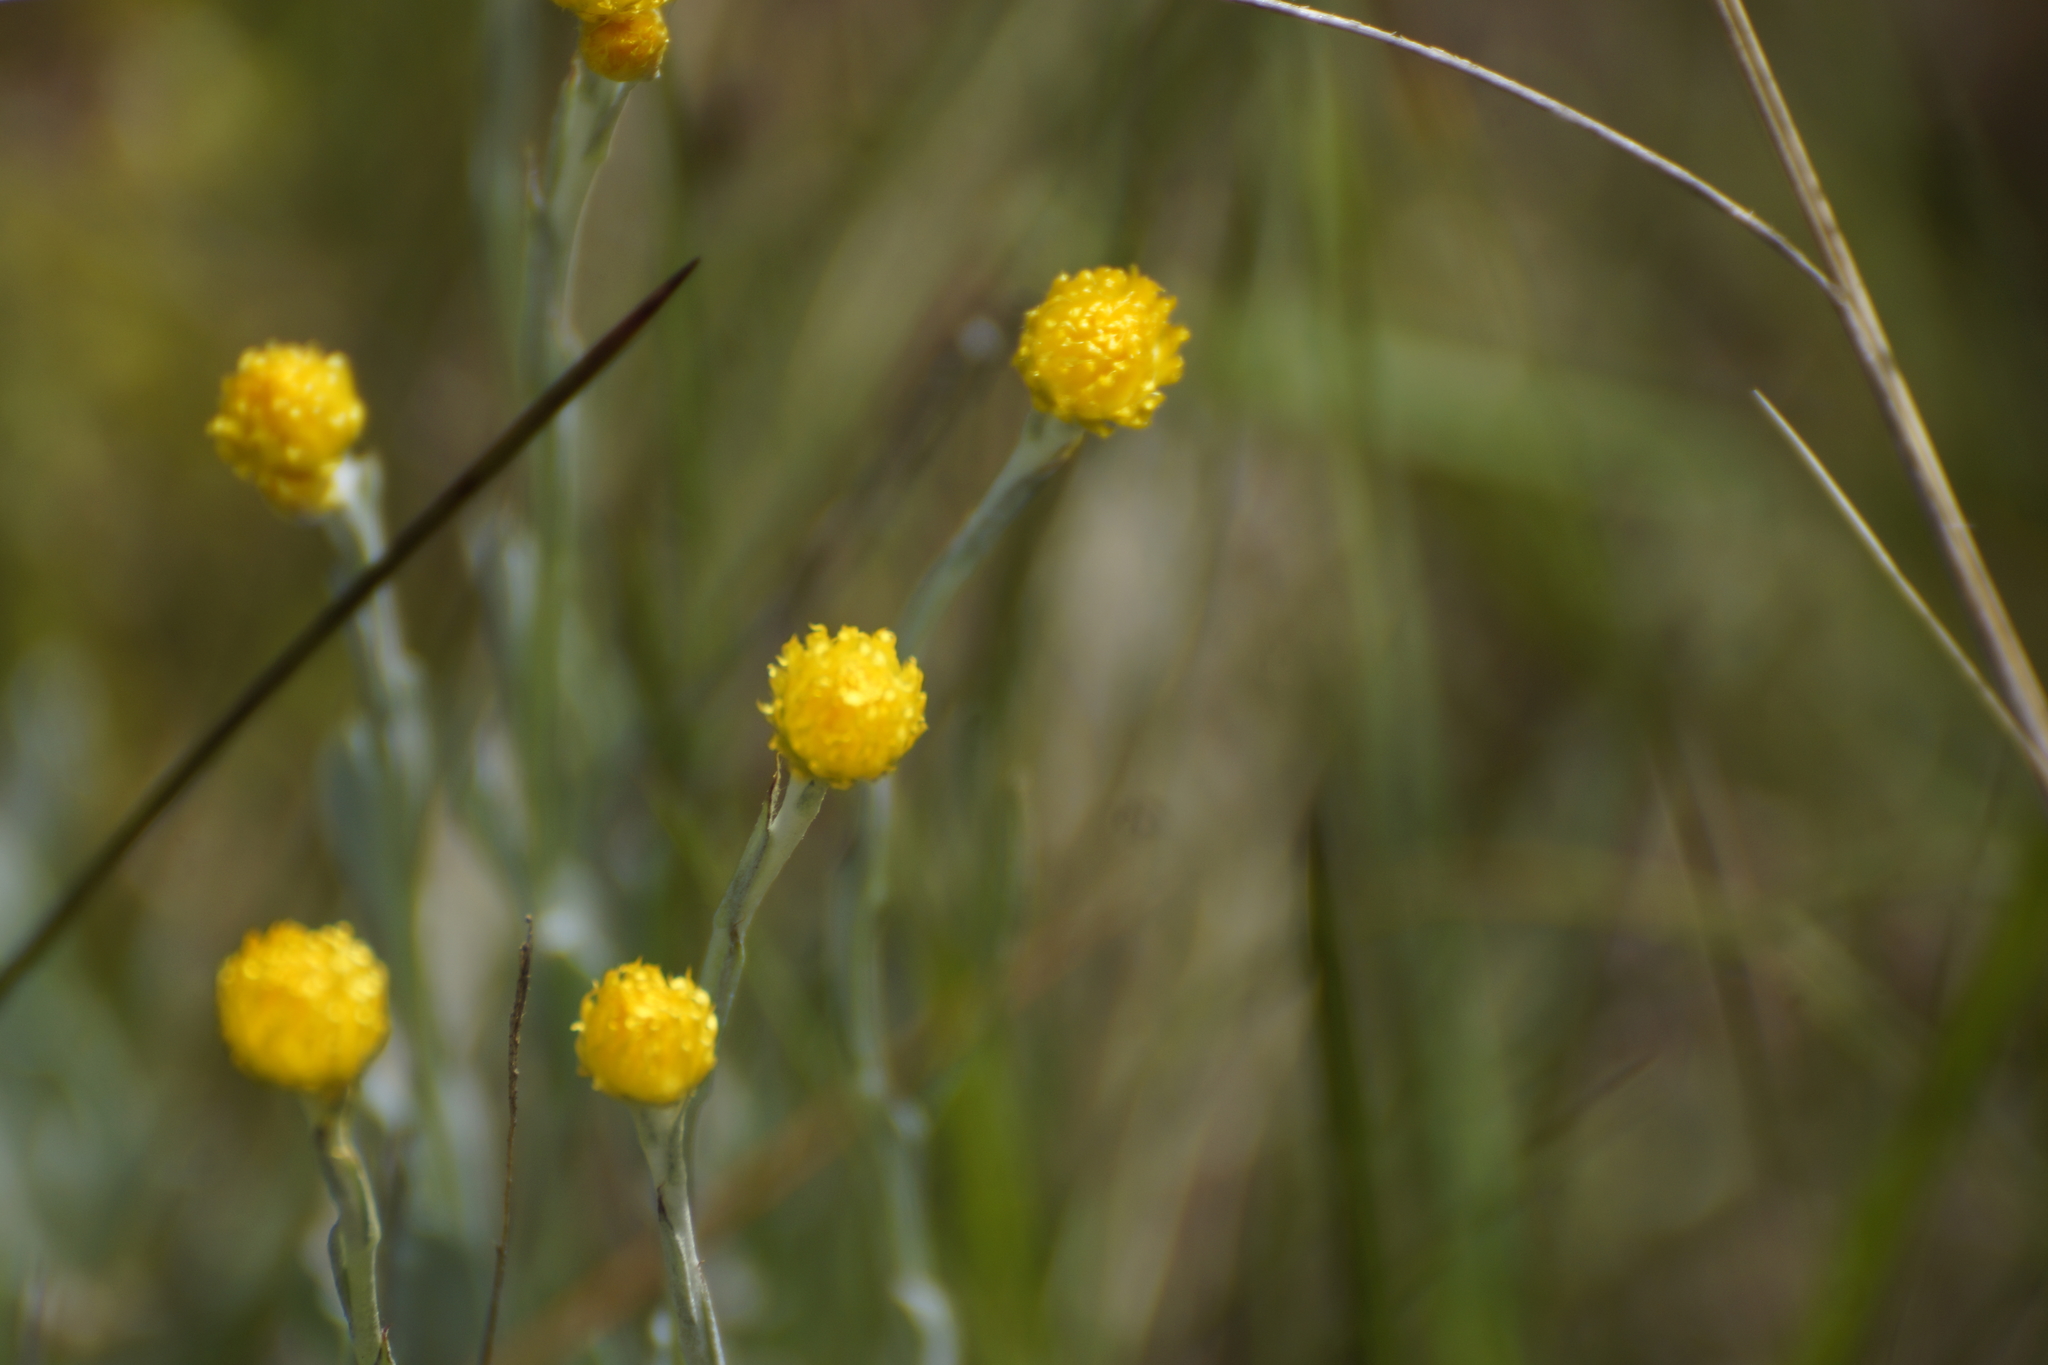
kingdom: Plantae
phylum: Tracheophyta
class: Magnoliopsida
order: Asterales
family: Asteraceae
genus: Chrysocephalum
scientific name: Chrysocephalum apiculatum
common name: Common everlasting
